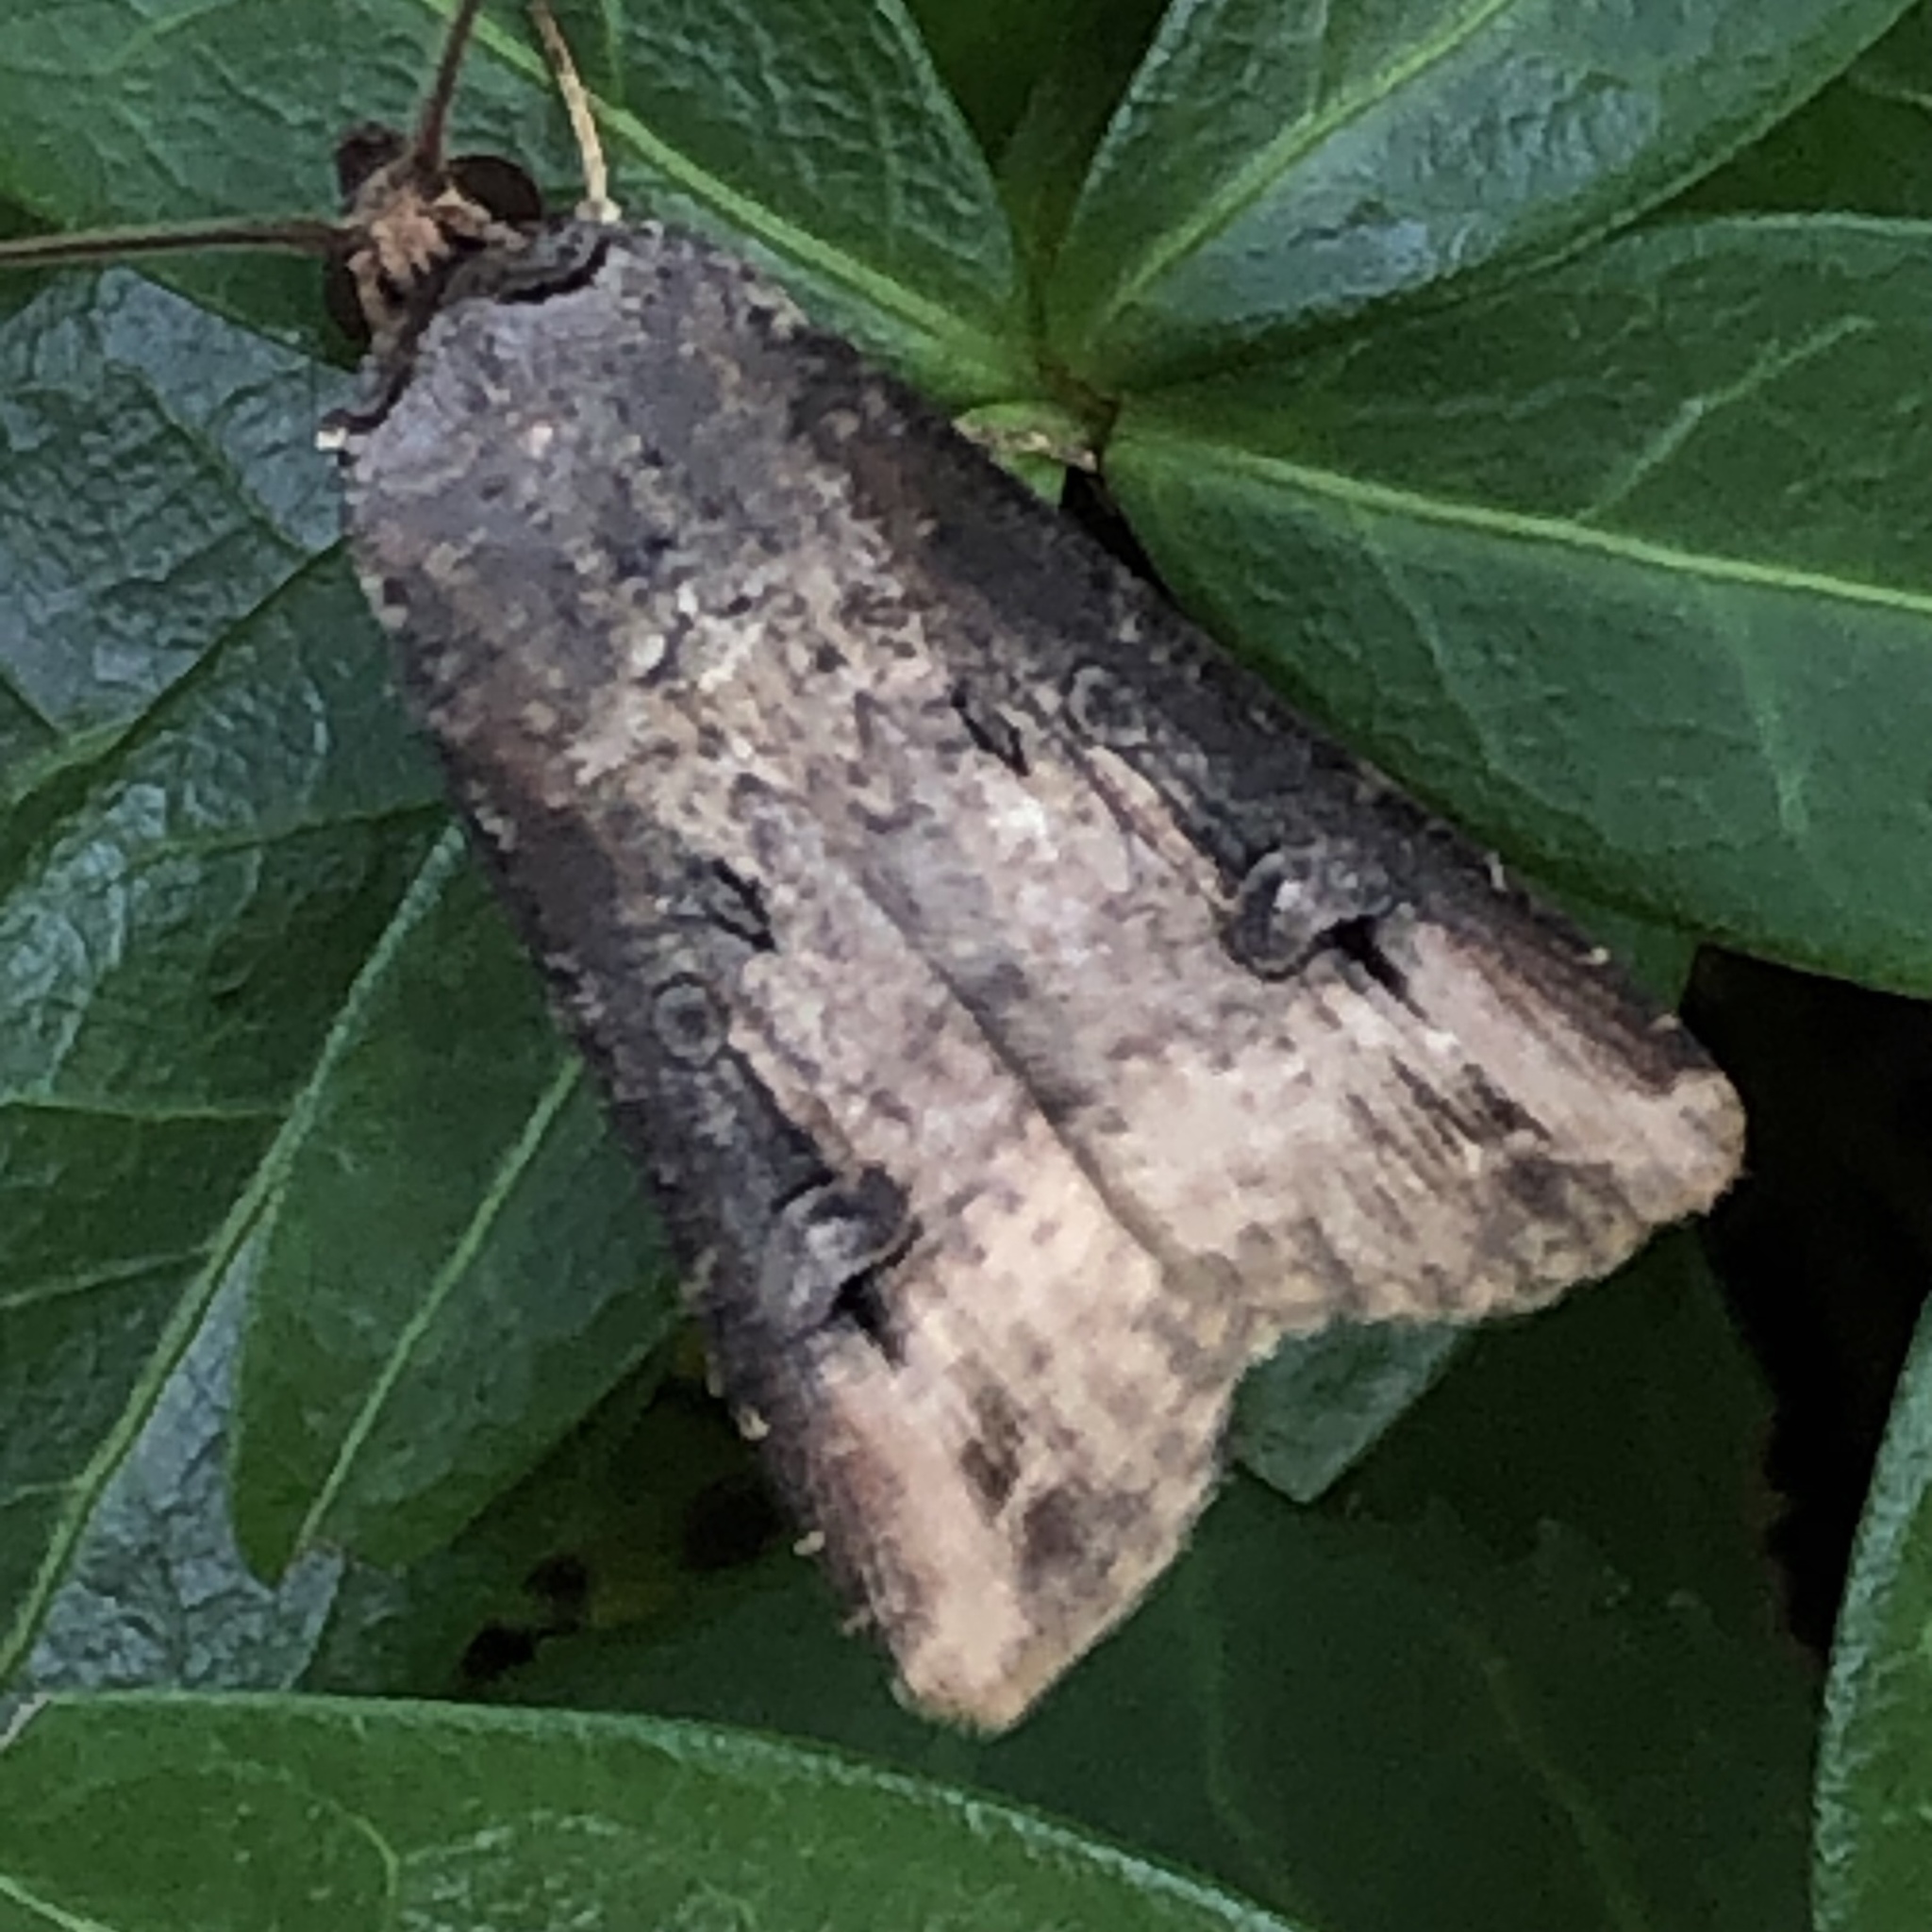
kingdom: Animalia
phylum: Arthropoda
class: Insecta
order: Lepidoptera
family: Noctuidae
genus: Agrotis
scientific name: Agrotis ipsilon
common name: Dark sword-grass
